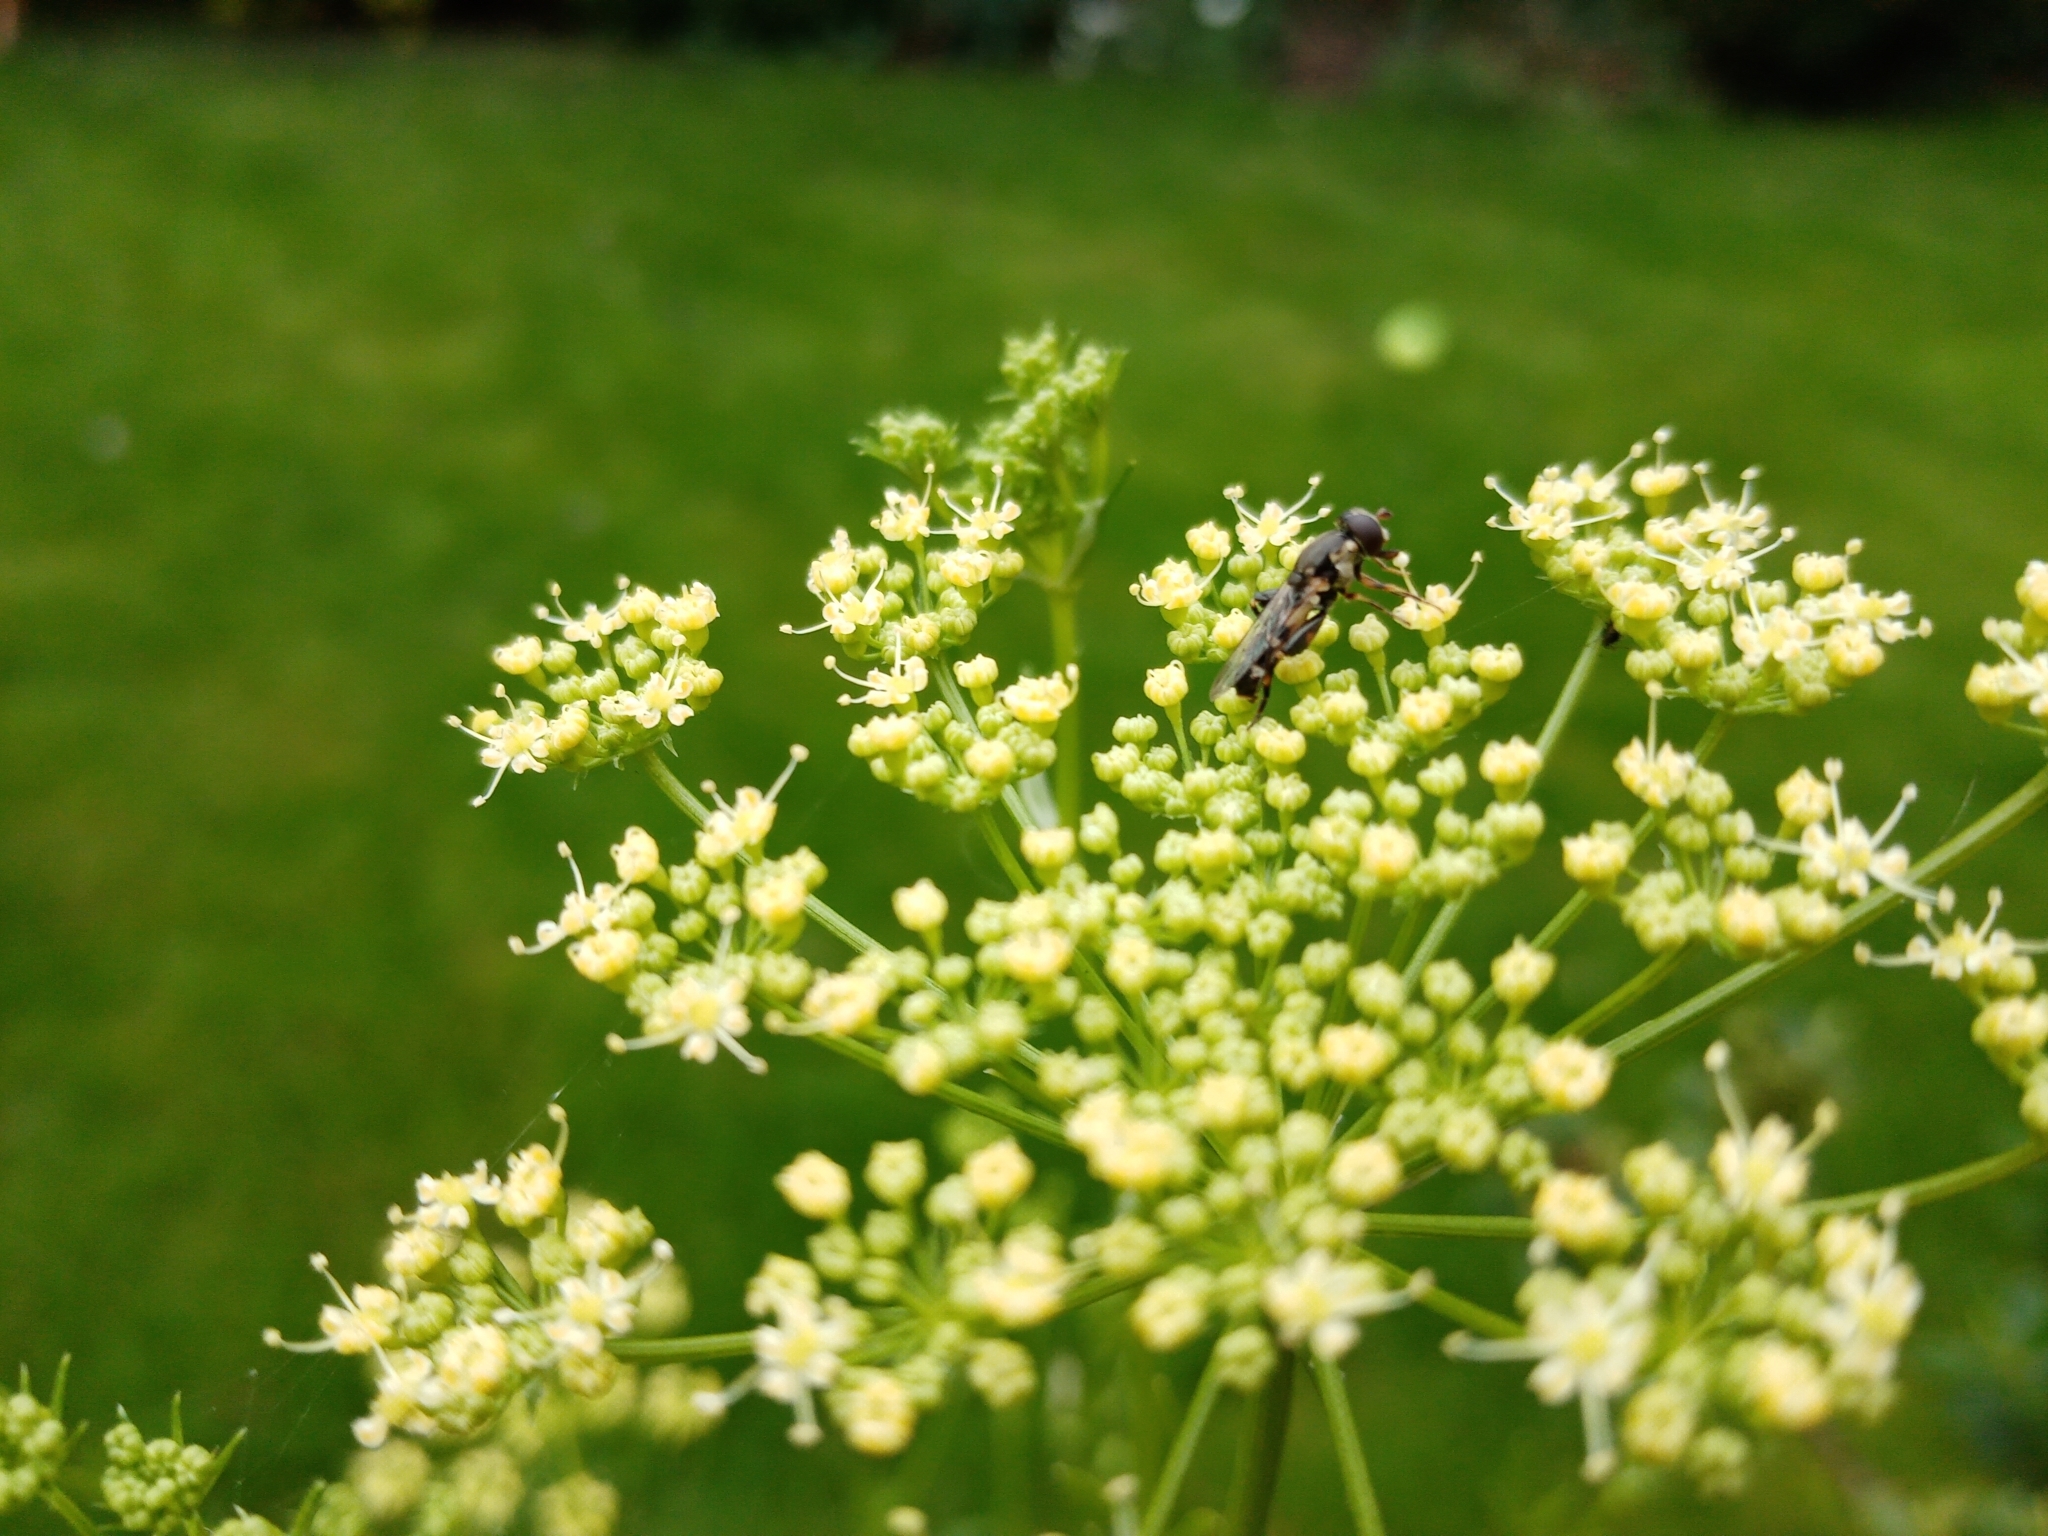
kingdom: Animalia
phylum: Arthropoda
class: Insecta
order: Diptera
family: Syrphidae
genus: Syritta
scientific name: Syritta pipiens
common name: Hover fly
